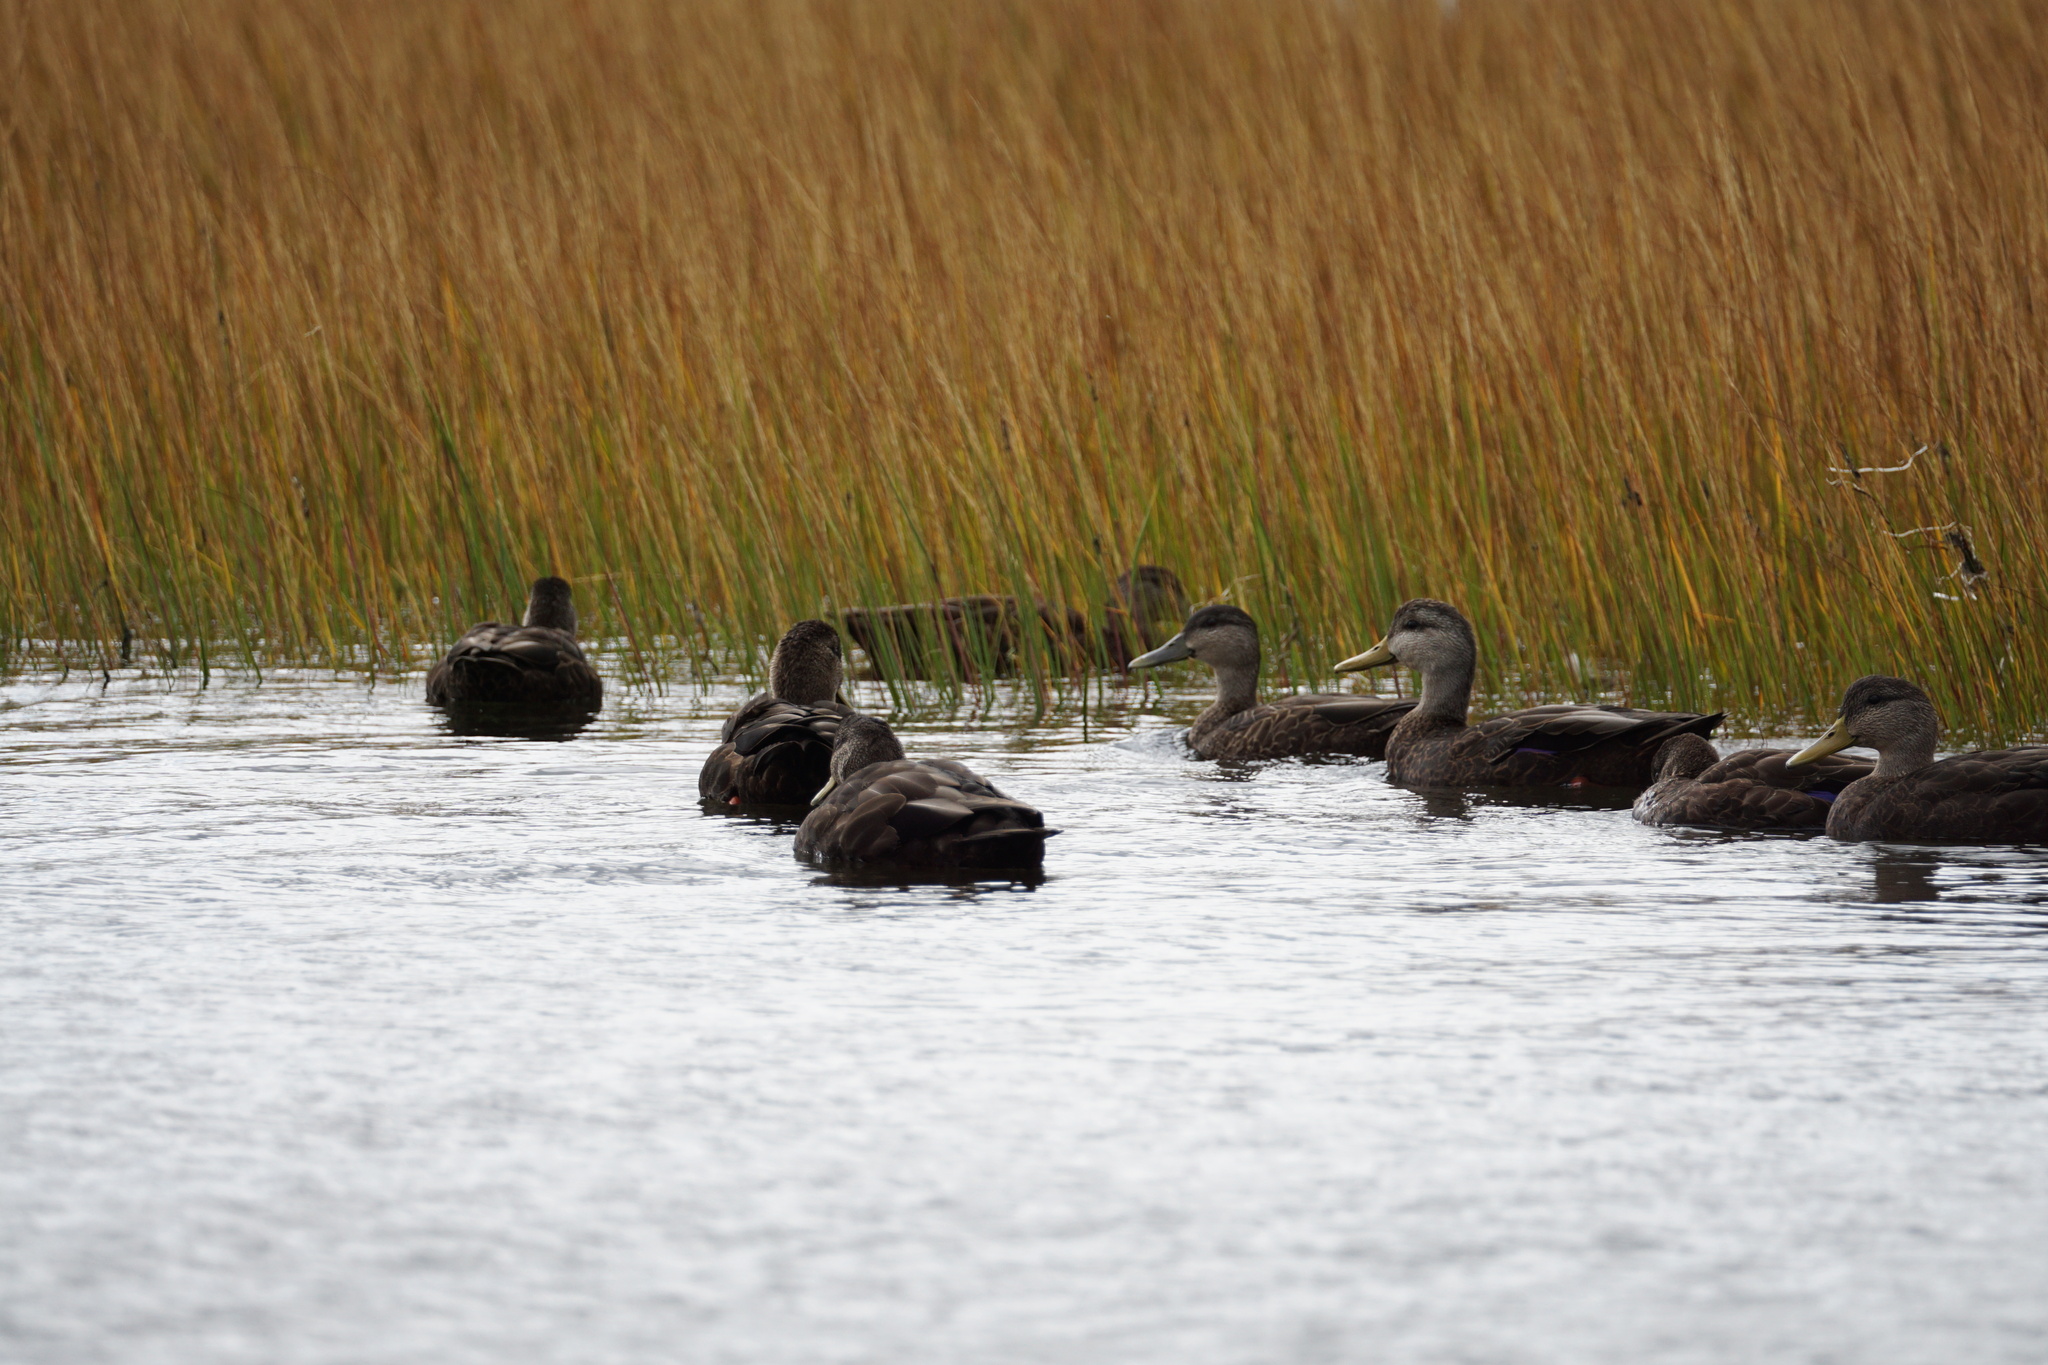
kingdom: Animalia
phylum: Chordata
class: Aves
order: Anseriformes
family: Anatidae
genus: Anas
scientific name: Anas rubripes
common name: American black duck
